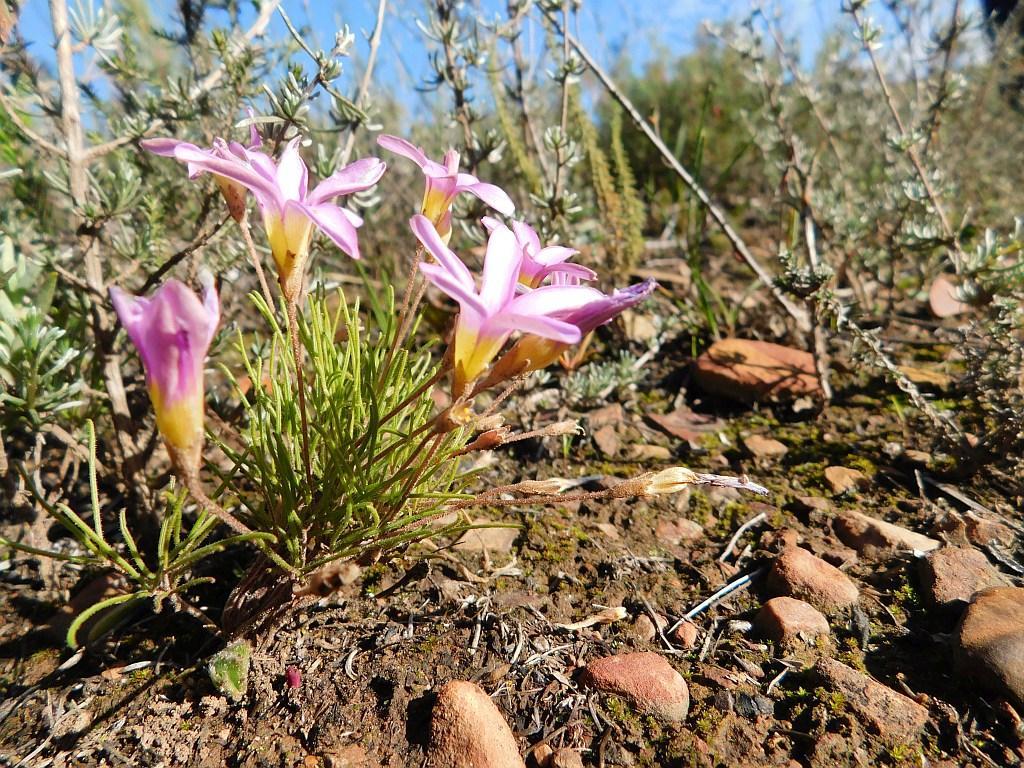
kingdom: Plantae
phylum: Tracheophyta
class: Magnoliopsida
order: Oxalidales
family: Oxalidaceae
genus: Oxalis
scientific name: Oxalis polyphylla
